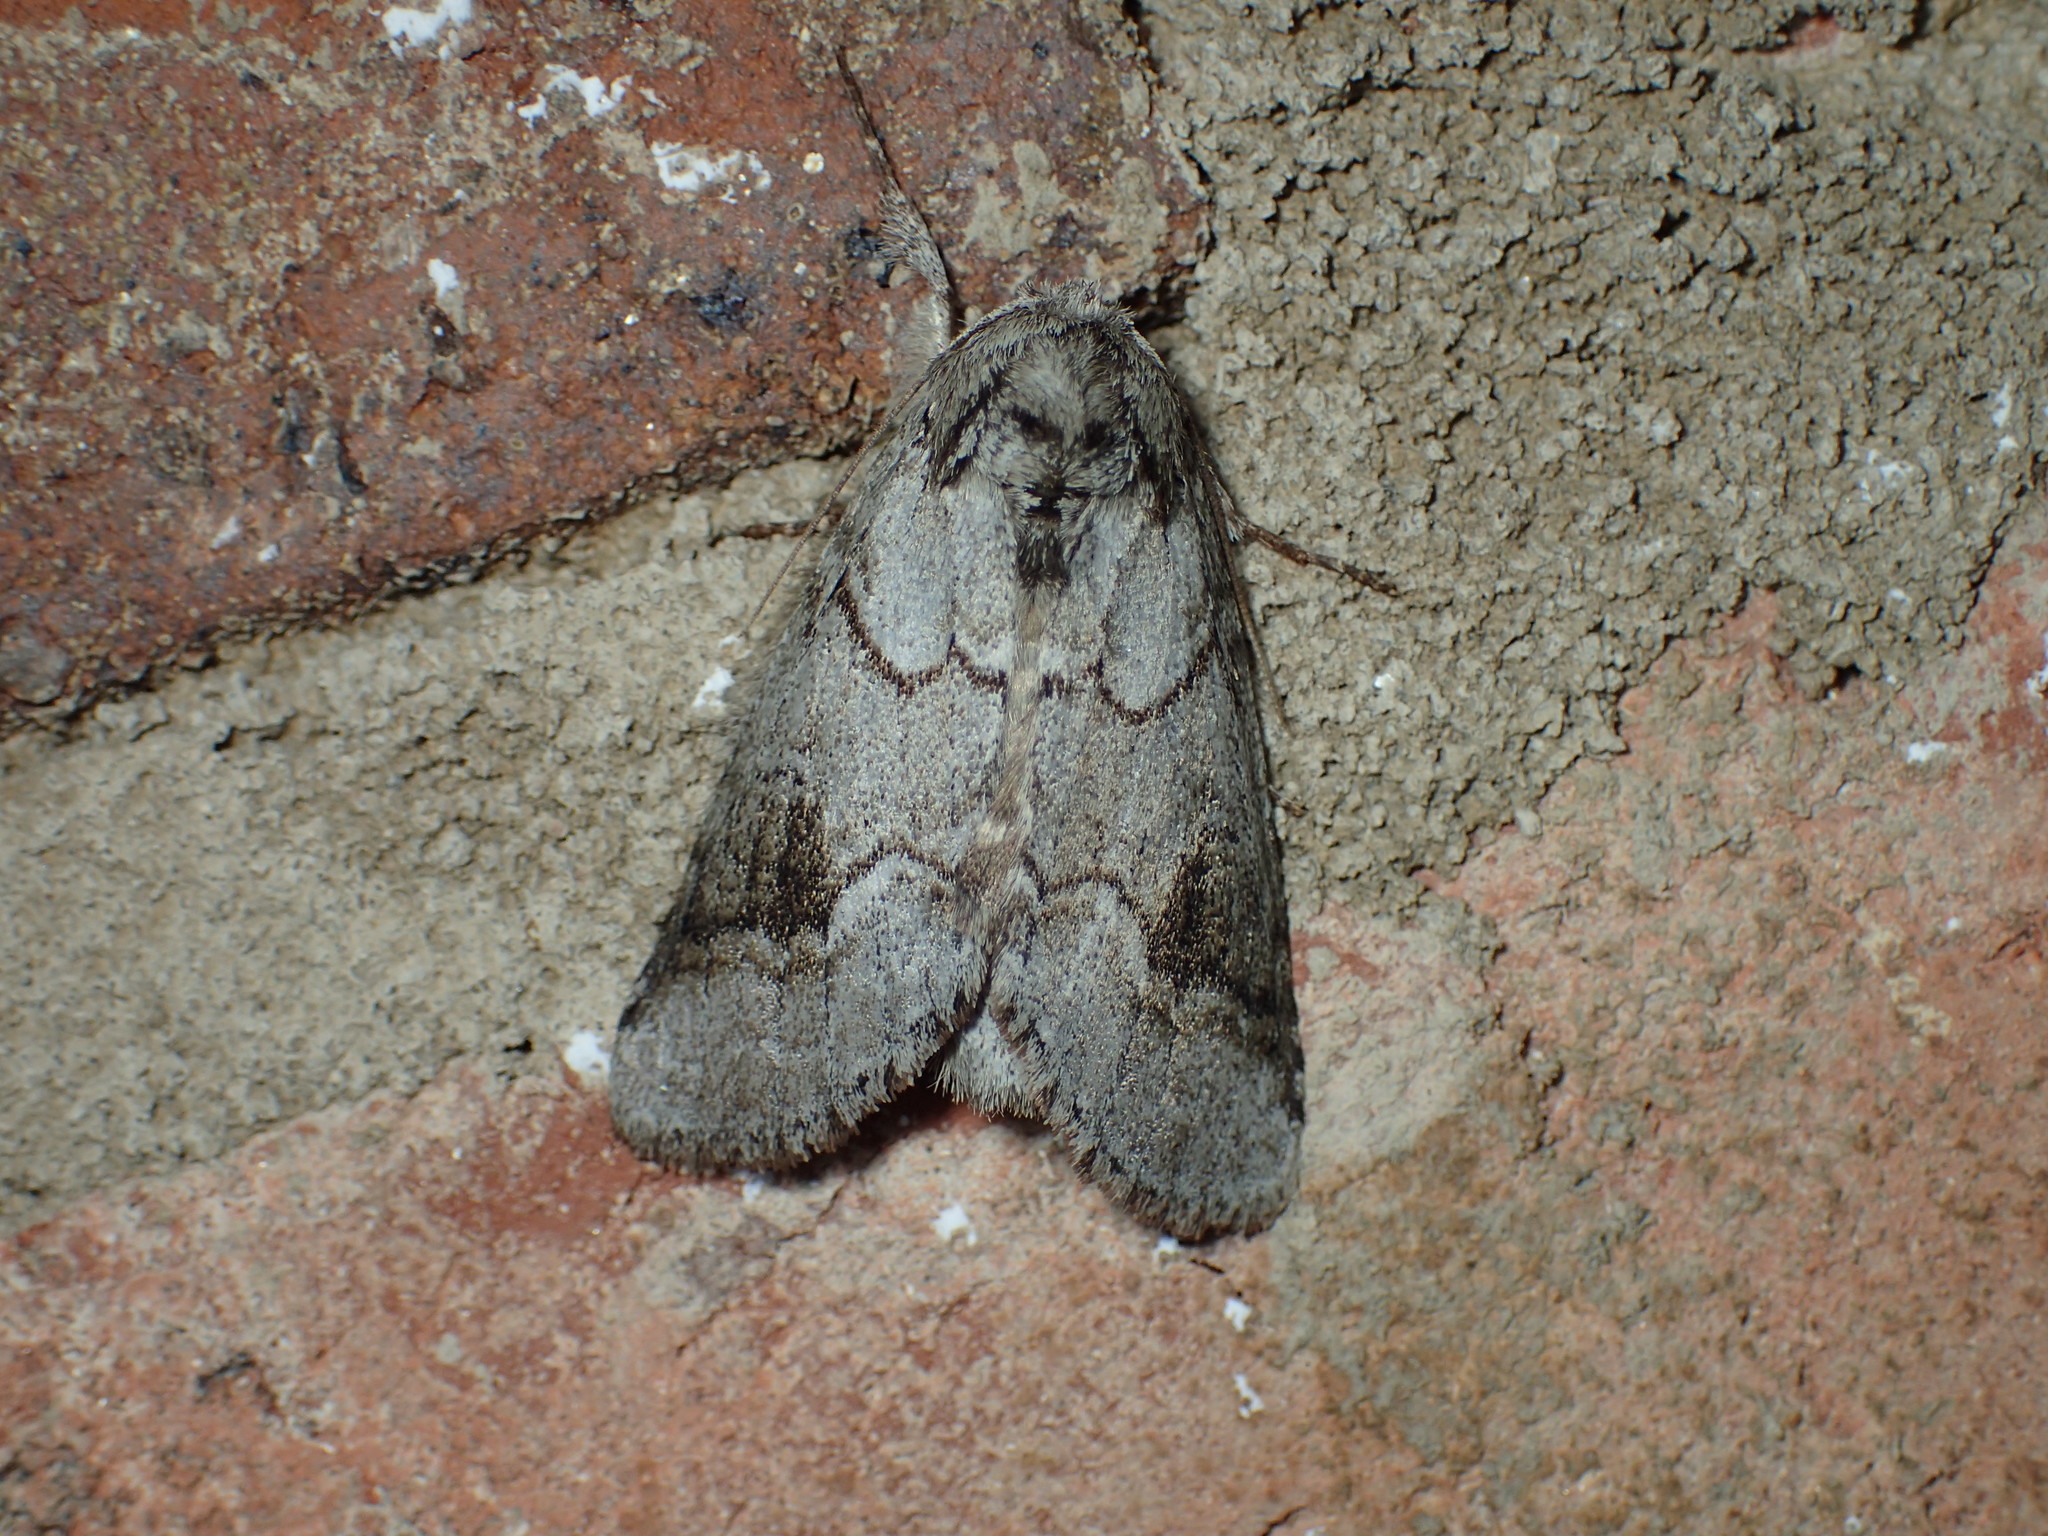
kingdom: Animalia
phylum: Arthropoda
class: Insecta
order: Lepidoptera
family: Notodontidae
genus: Lochmaeus
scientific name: Lochmaeus bilineata
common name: Double-lined prominent
